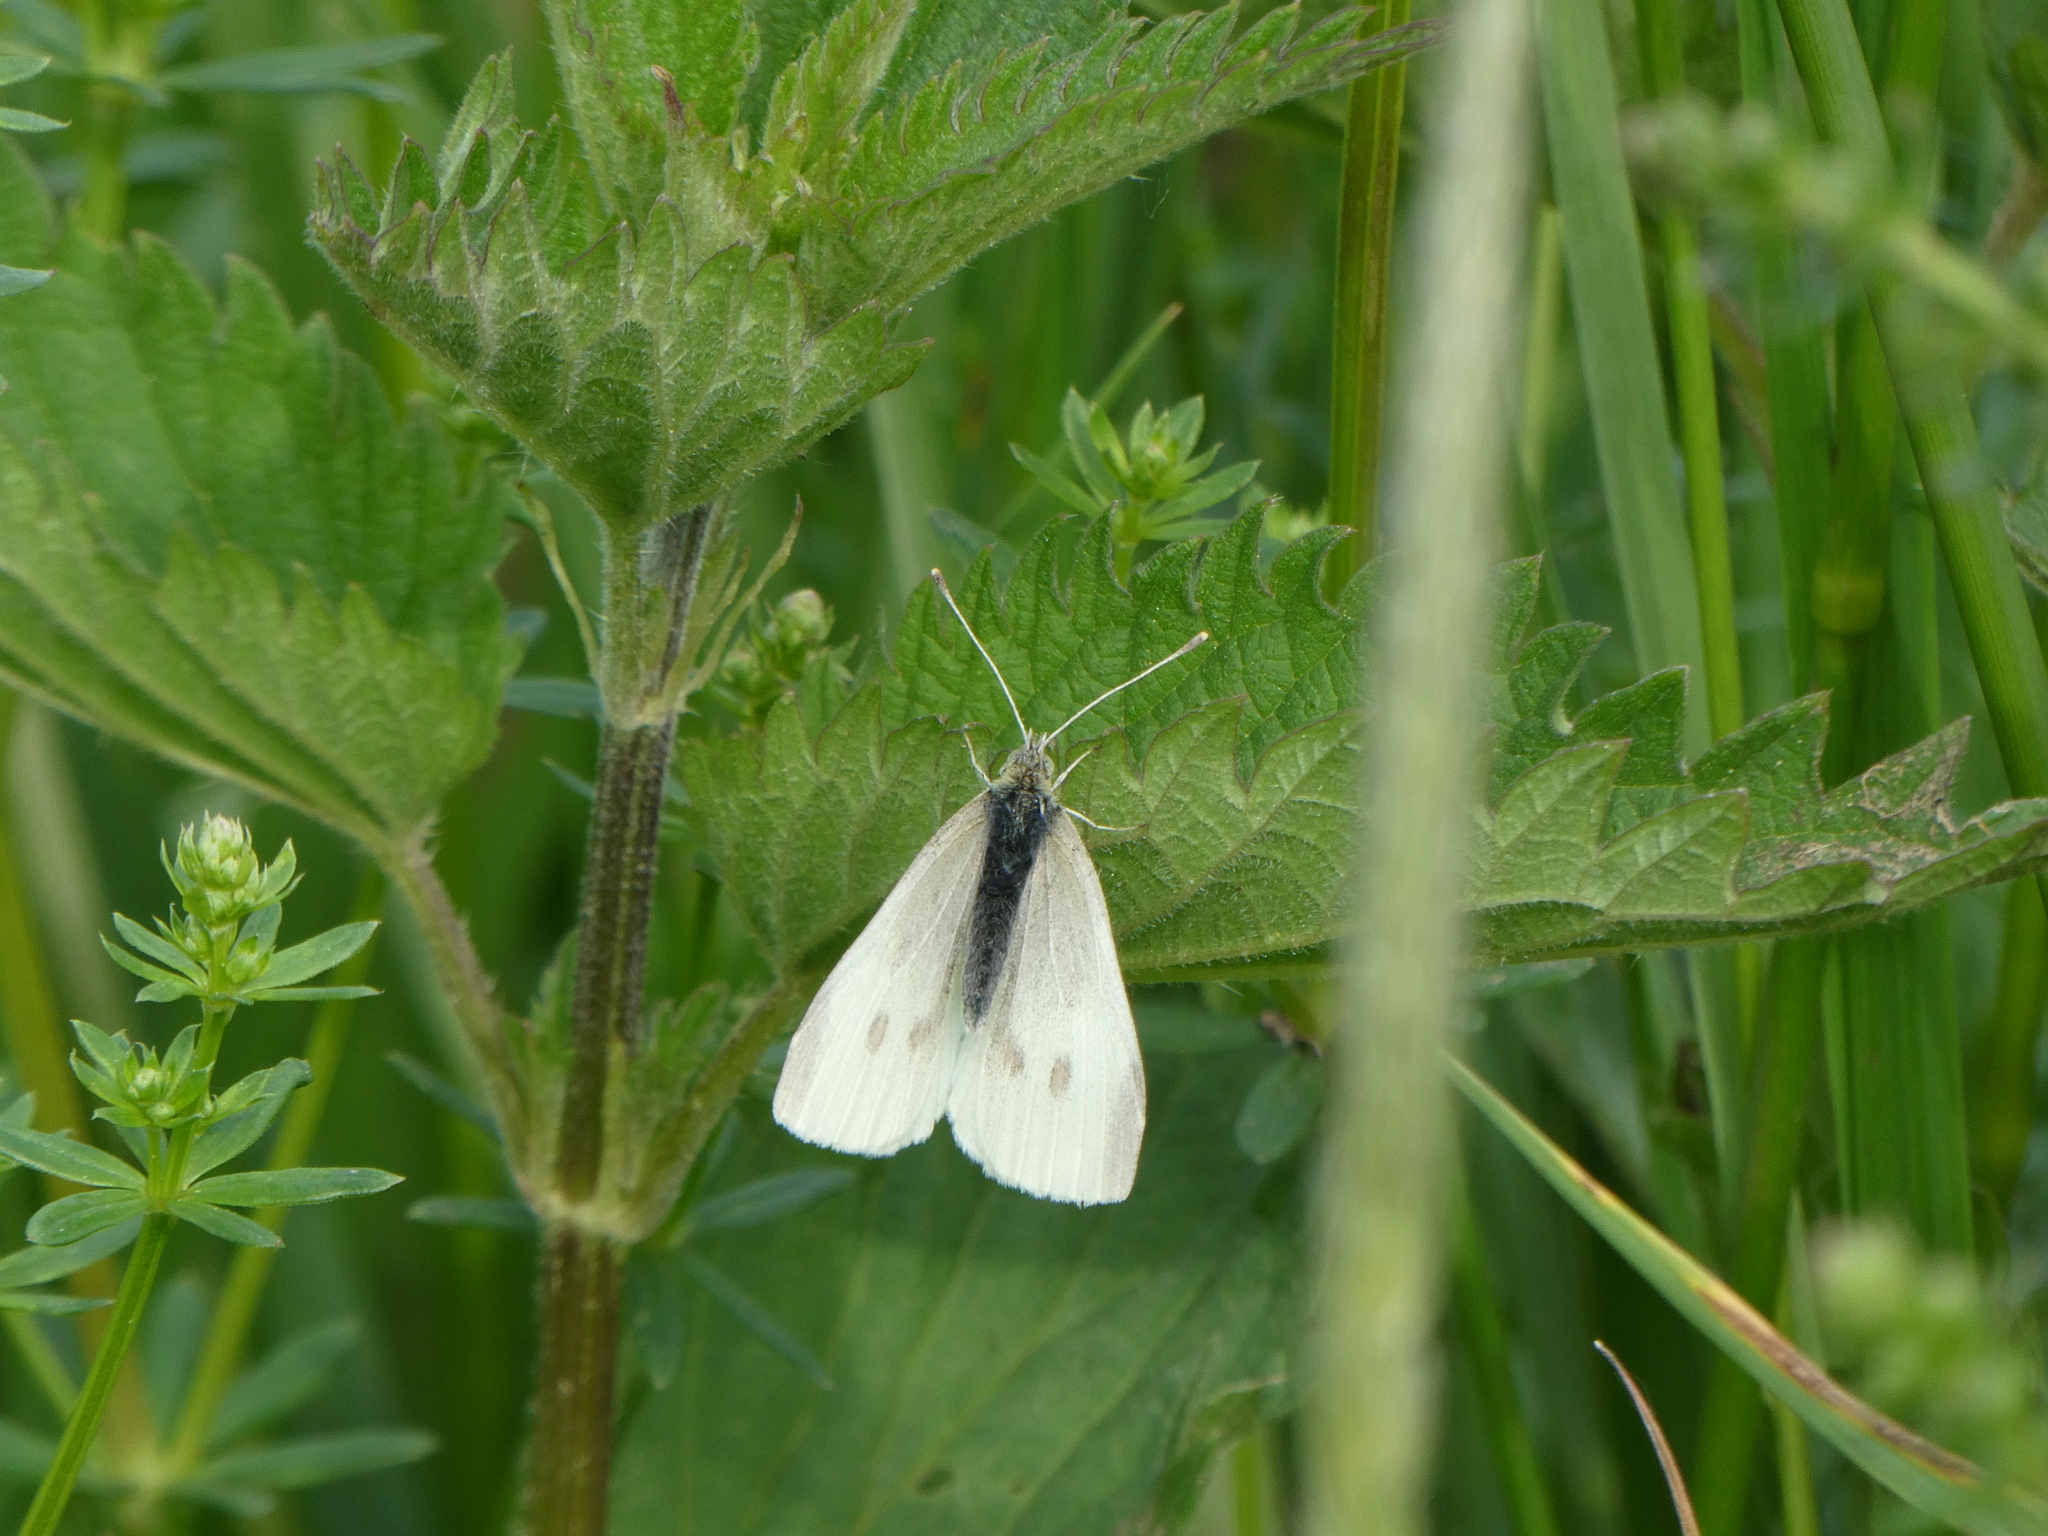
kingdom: Animalia
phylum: Arthropoda
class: Insecta
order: Lepidoptera
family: Pieridae
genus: Pieris
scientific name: Pieris rapae
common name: Small white
